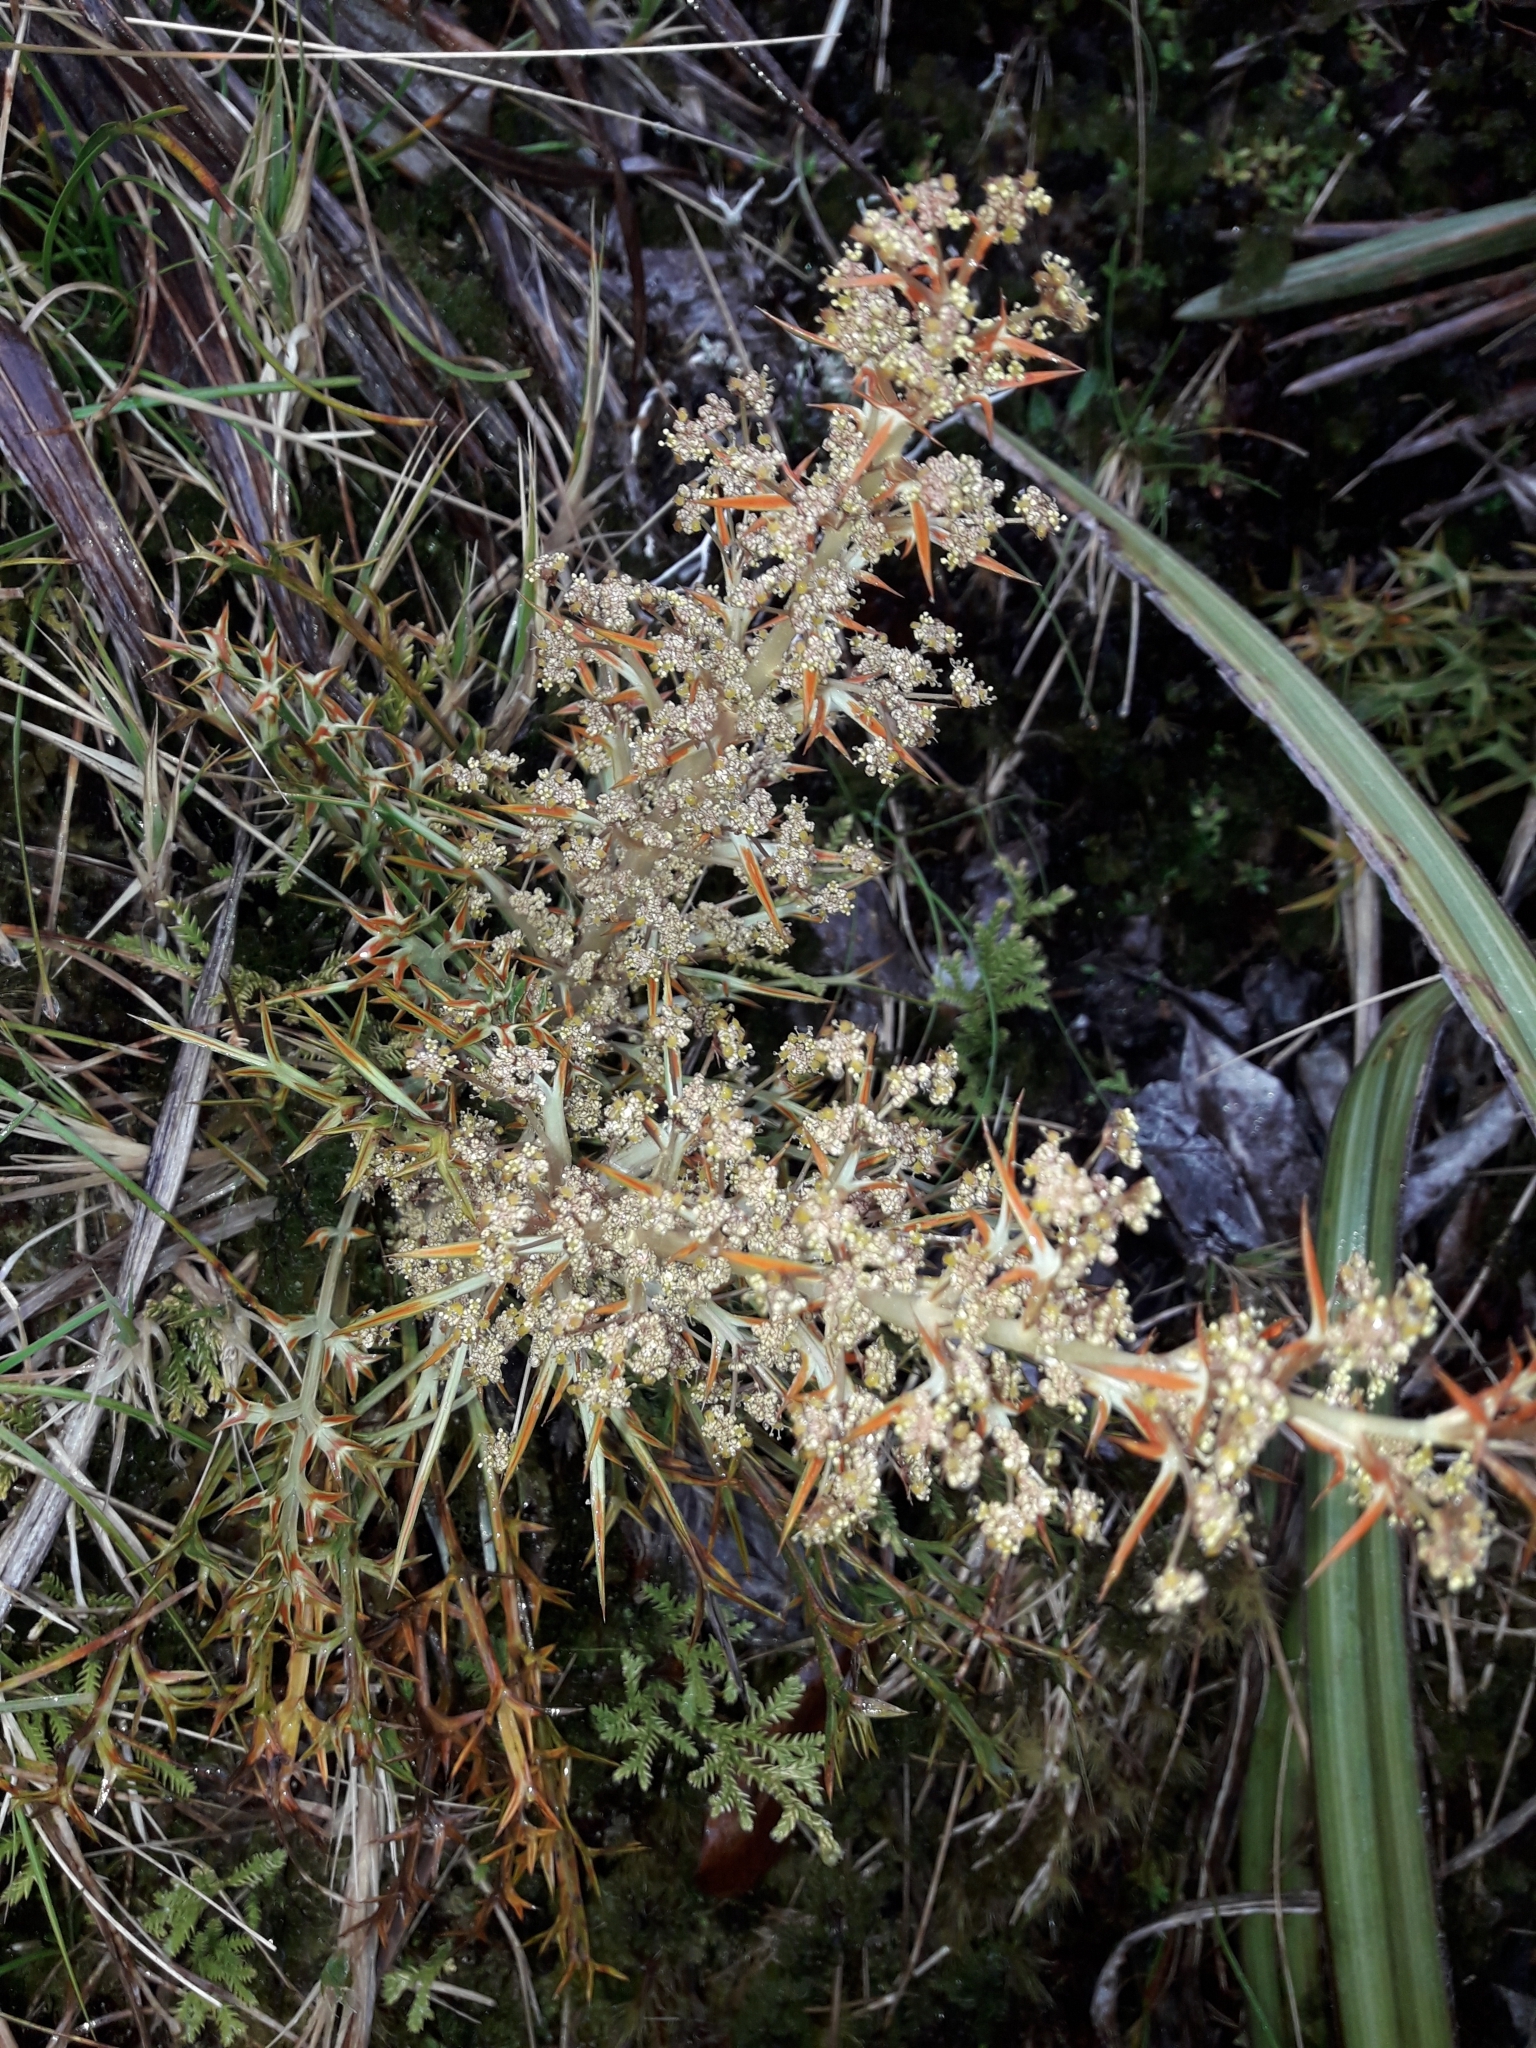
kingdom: Plantae
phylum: Tracheophyta
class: Magnoliopsida
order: Apiales
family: Apiaceae
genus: Aciphylla
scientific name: Aciphylla hookeri
